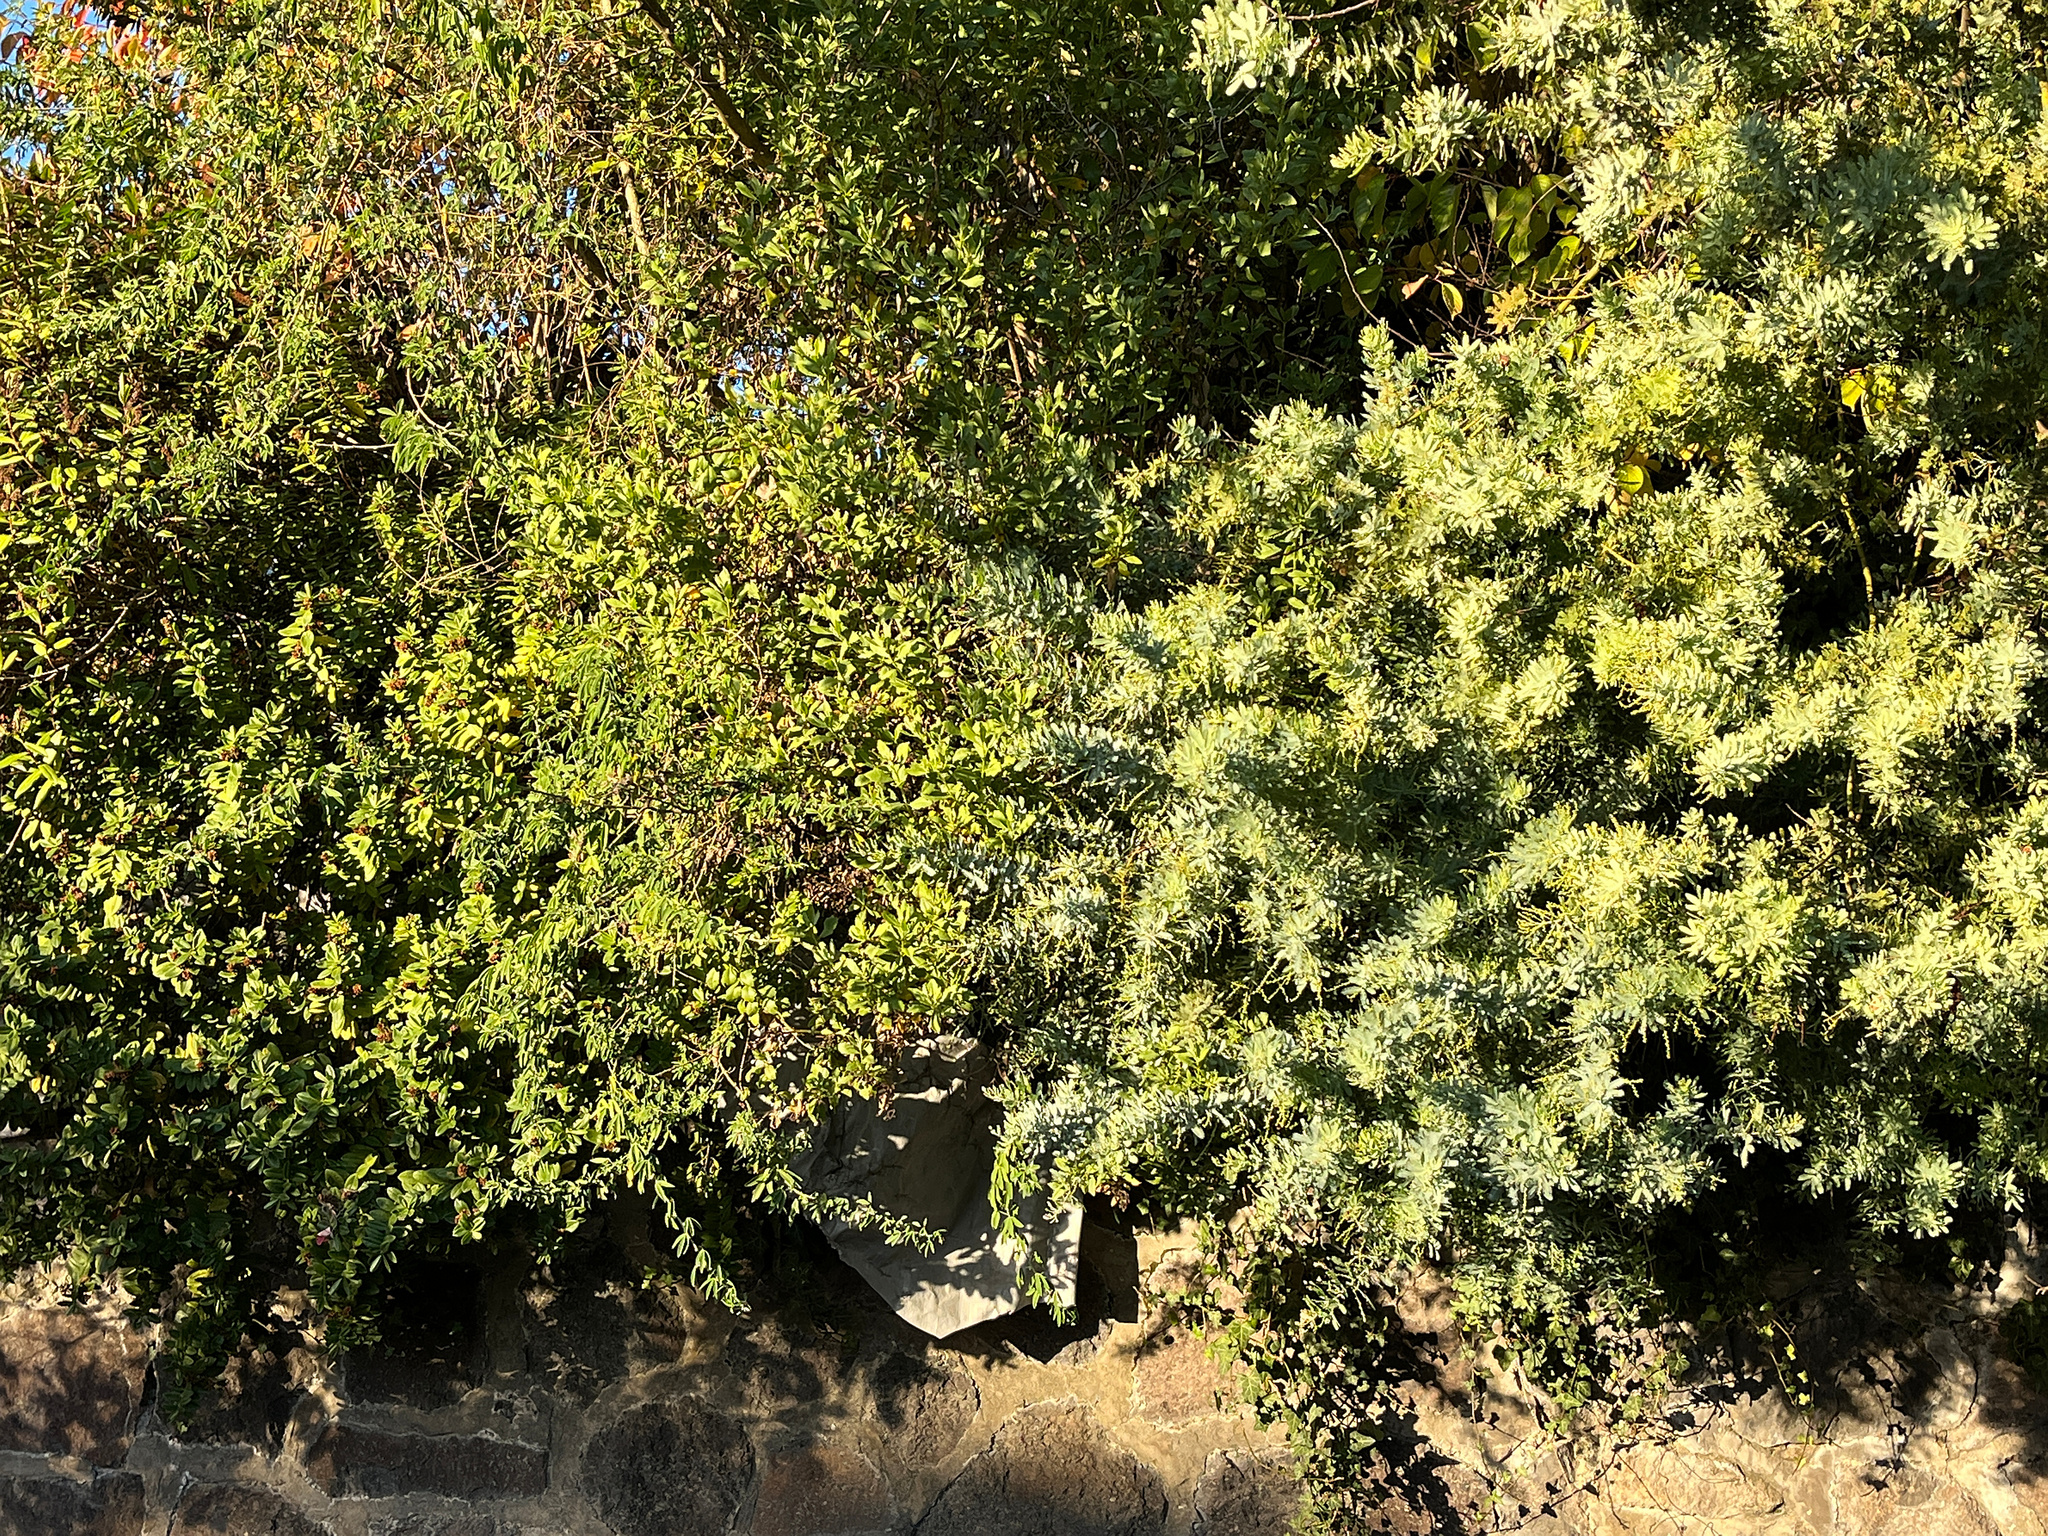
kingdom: Plantae
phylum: Tracheophyta
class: Magnoliopsida
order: Asterales
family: Asteraceae
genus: Osteospermum
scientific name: Osteospermum moniliferum
